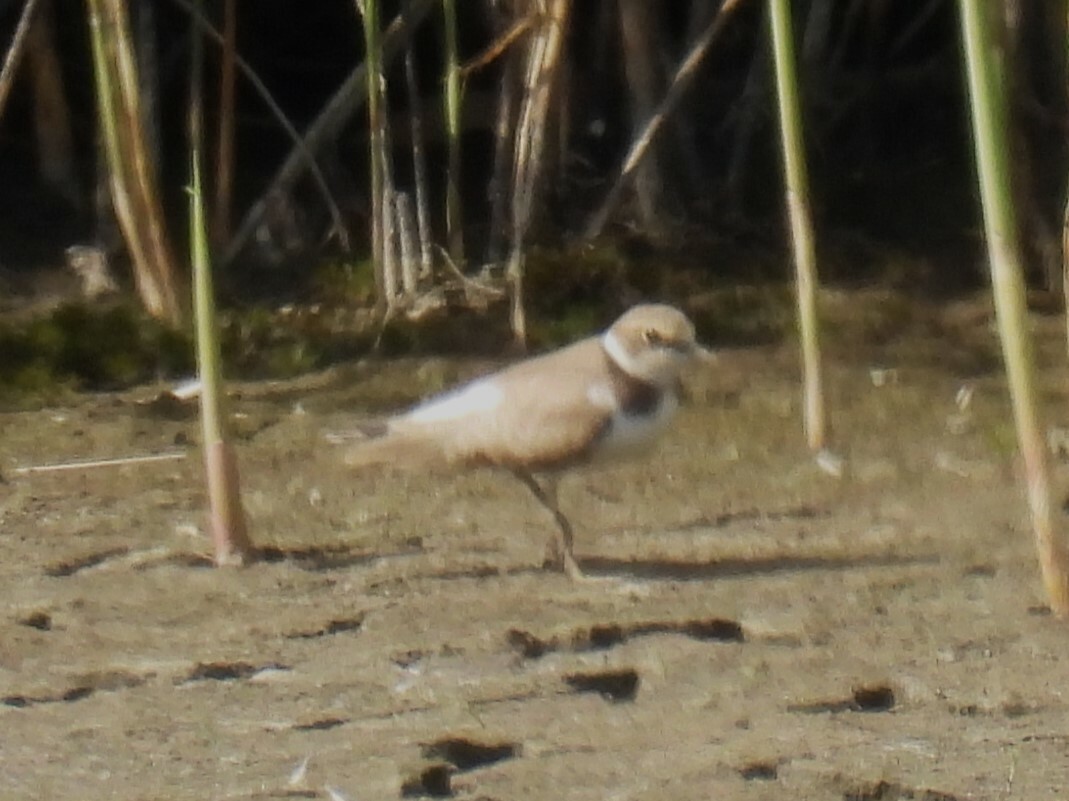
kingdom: Animalia
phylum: Chordata
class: Aves
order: Charadriiformes
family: Charadriidae
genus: Charadrius
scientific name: Charadrius dubius
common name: Little ringed plover
